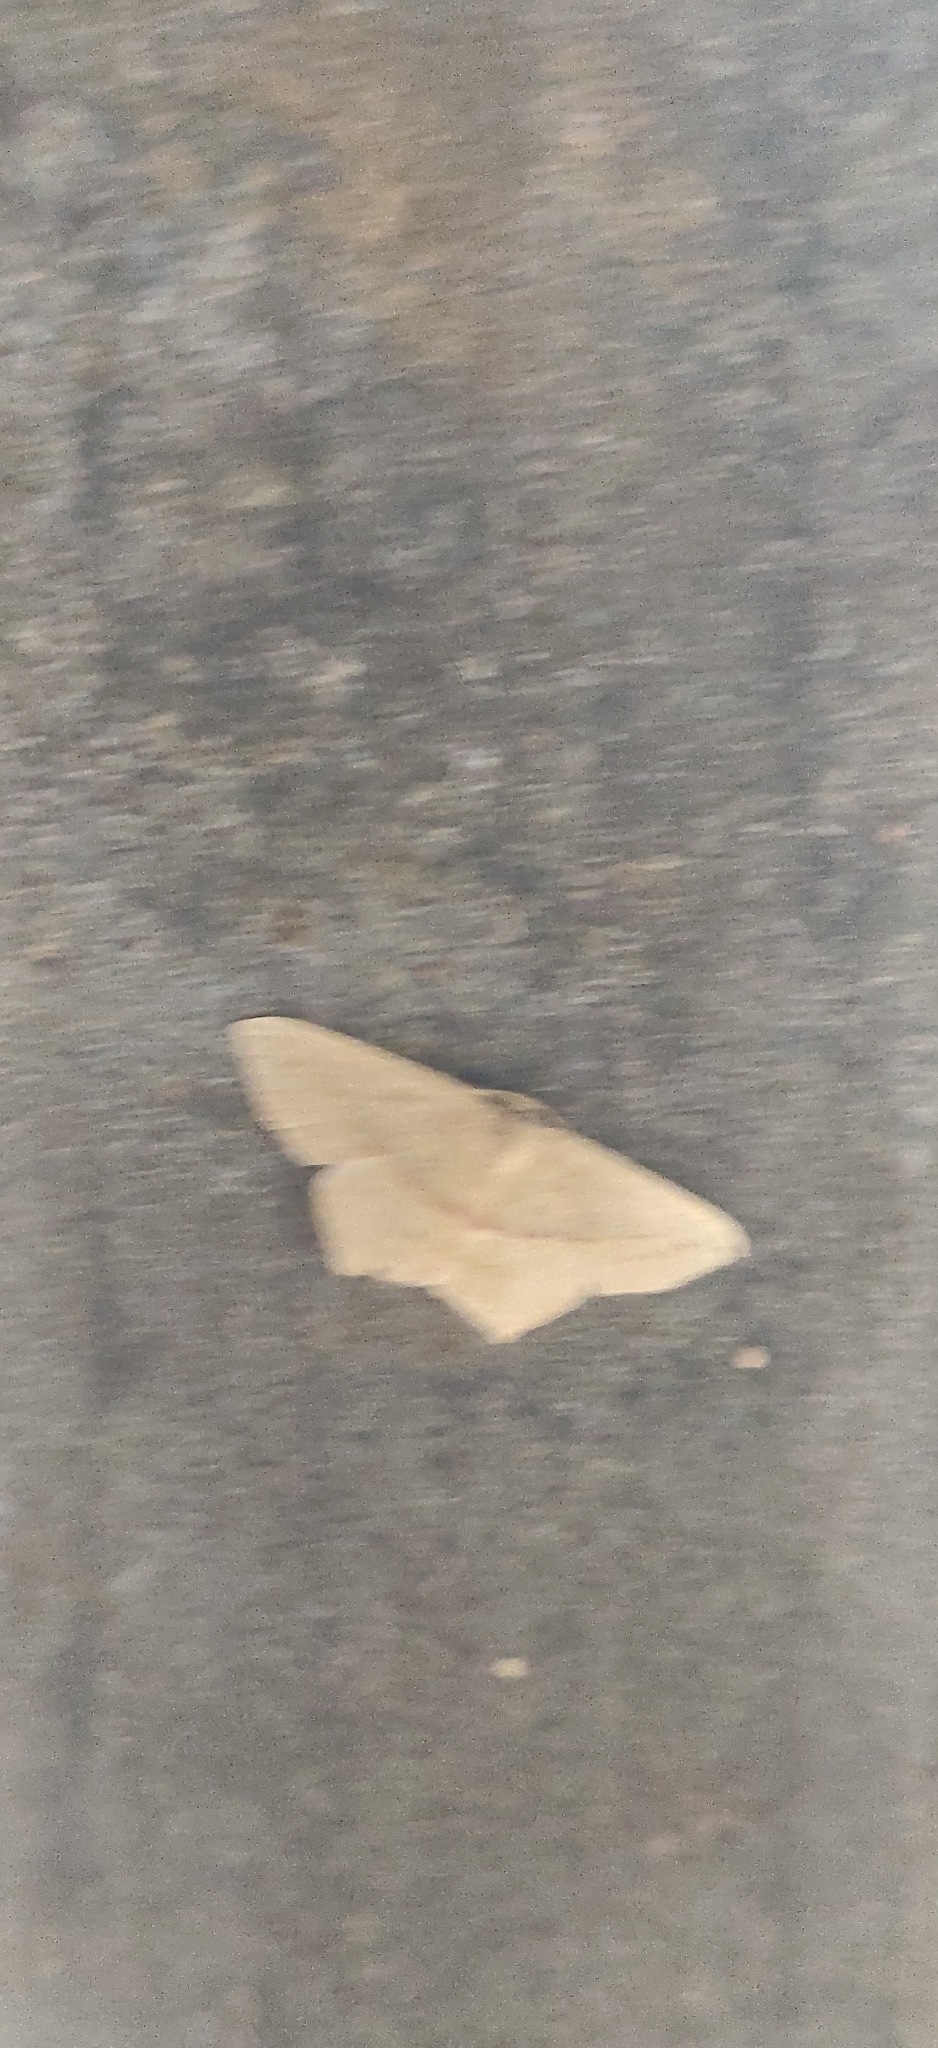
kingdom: Animalia
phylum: Arthropoda
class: Insecta
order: Lepidoptera
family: Geometridae
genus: Traminda
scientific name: Traminda mundissima
